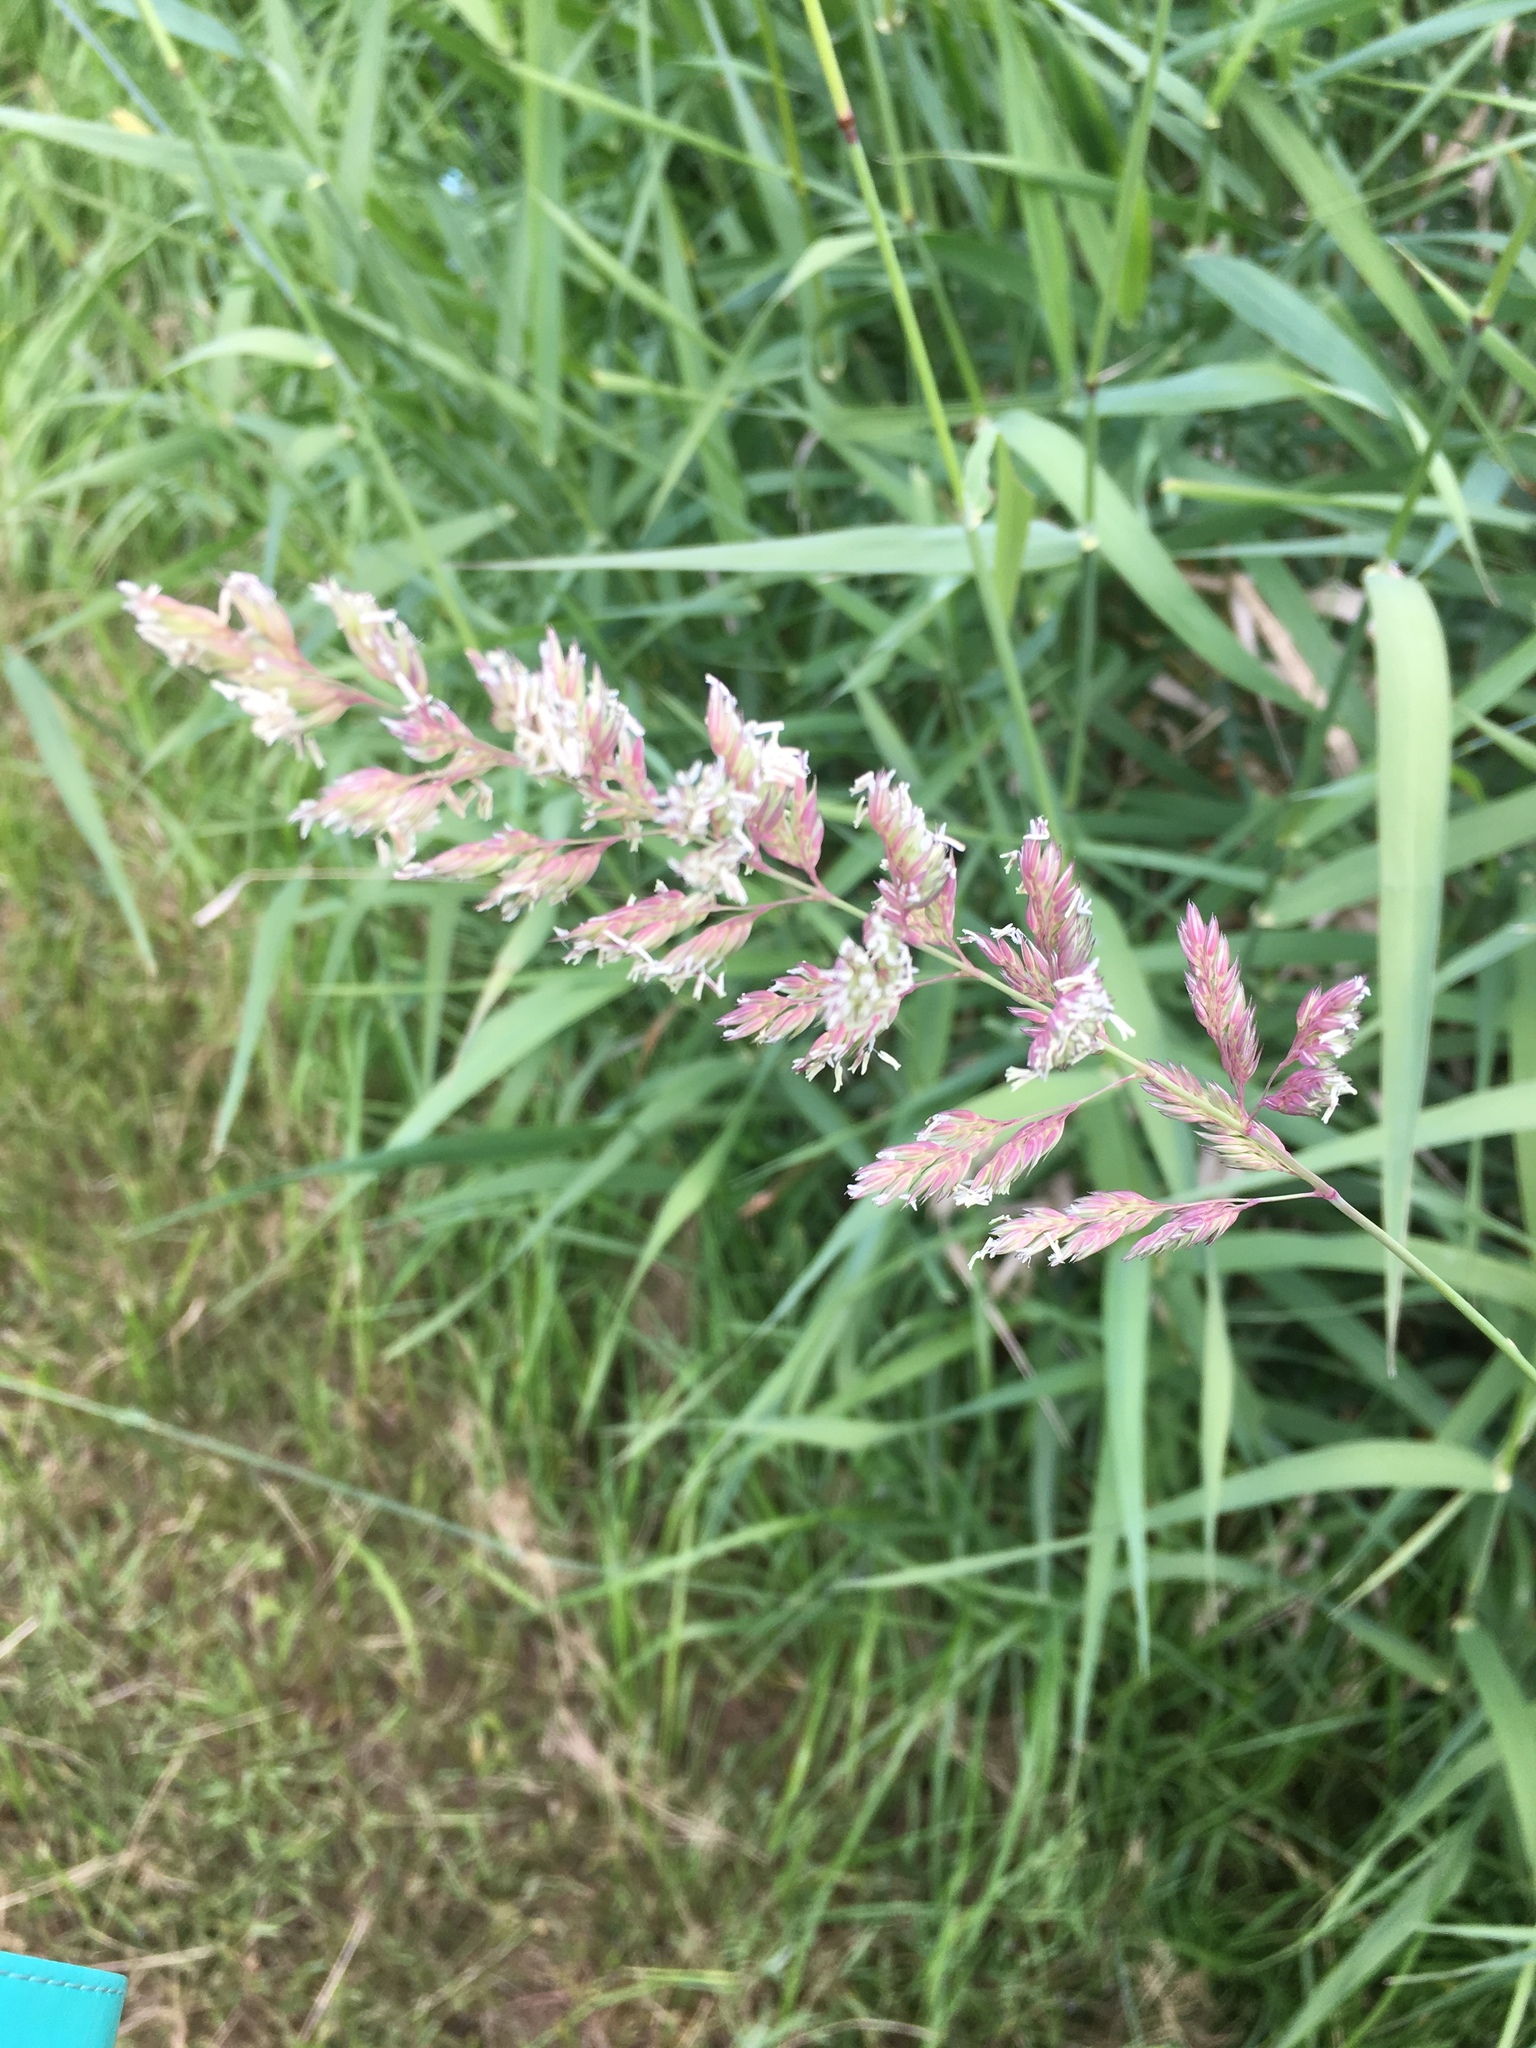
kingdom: Plantae
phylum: Tracheophyta
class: Liliopsida
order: Poales
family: Poaceae
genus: Phalaris
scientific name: Phalaris arundinacea
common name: Reed canary-grass
